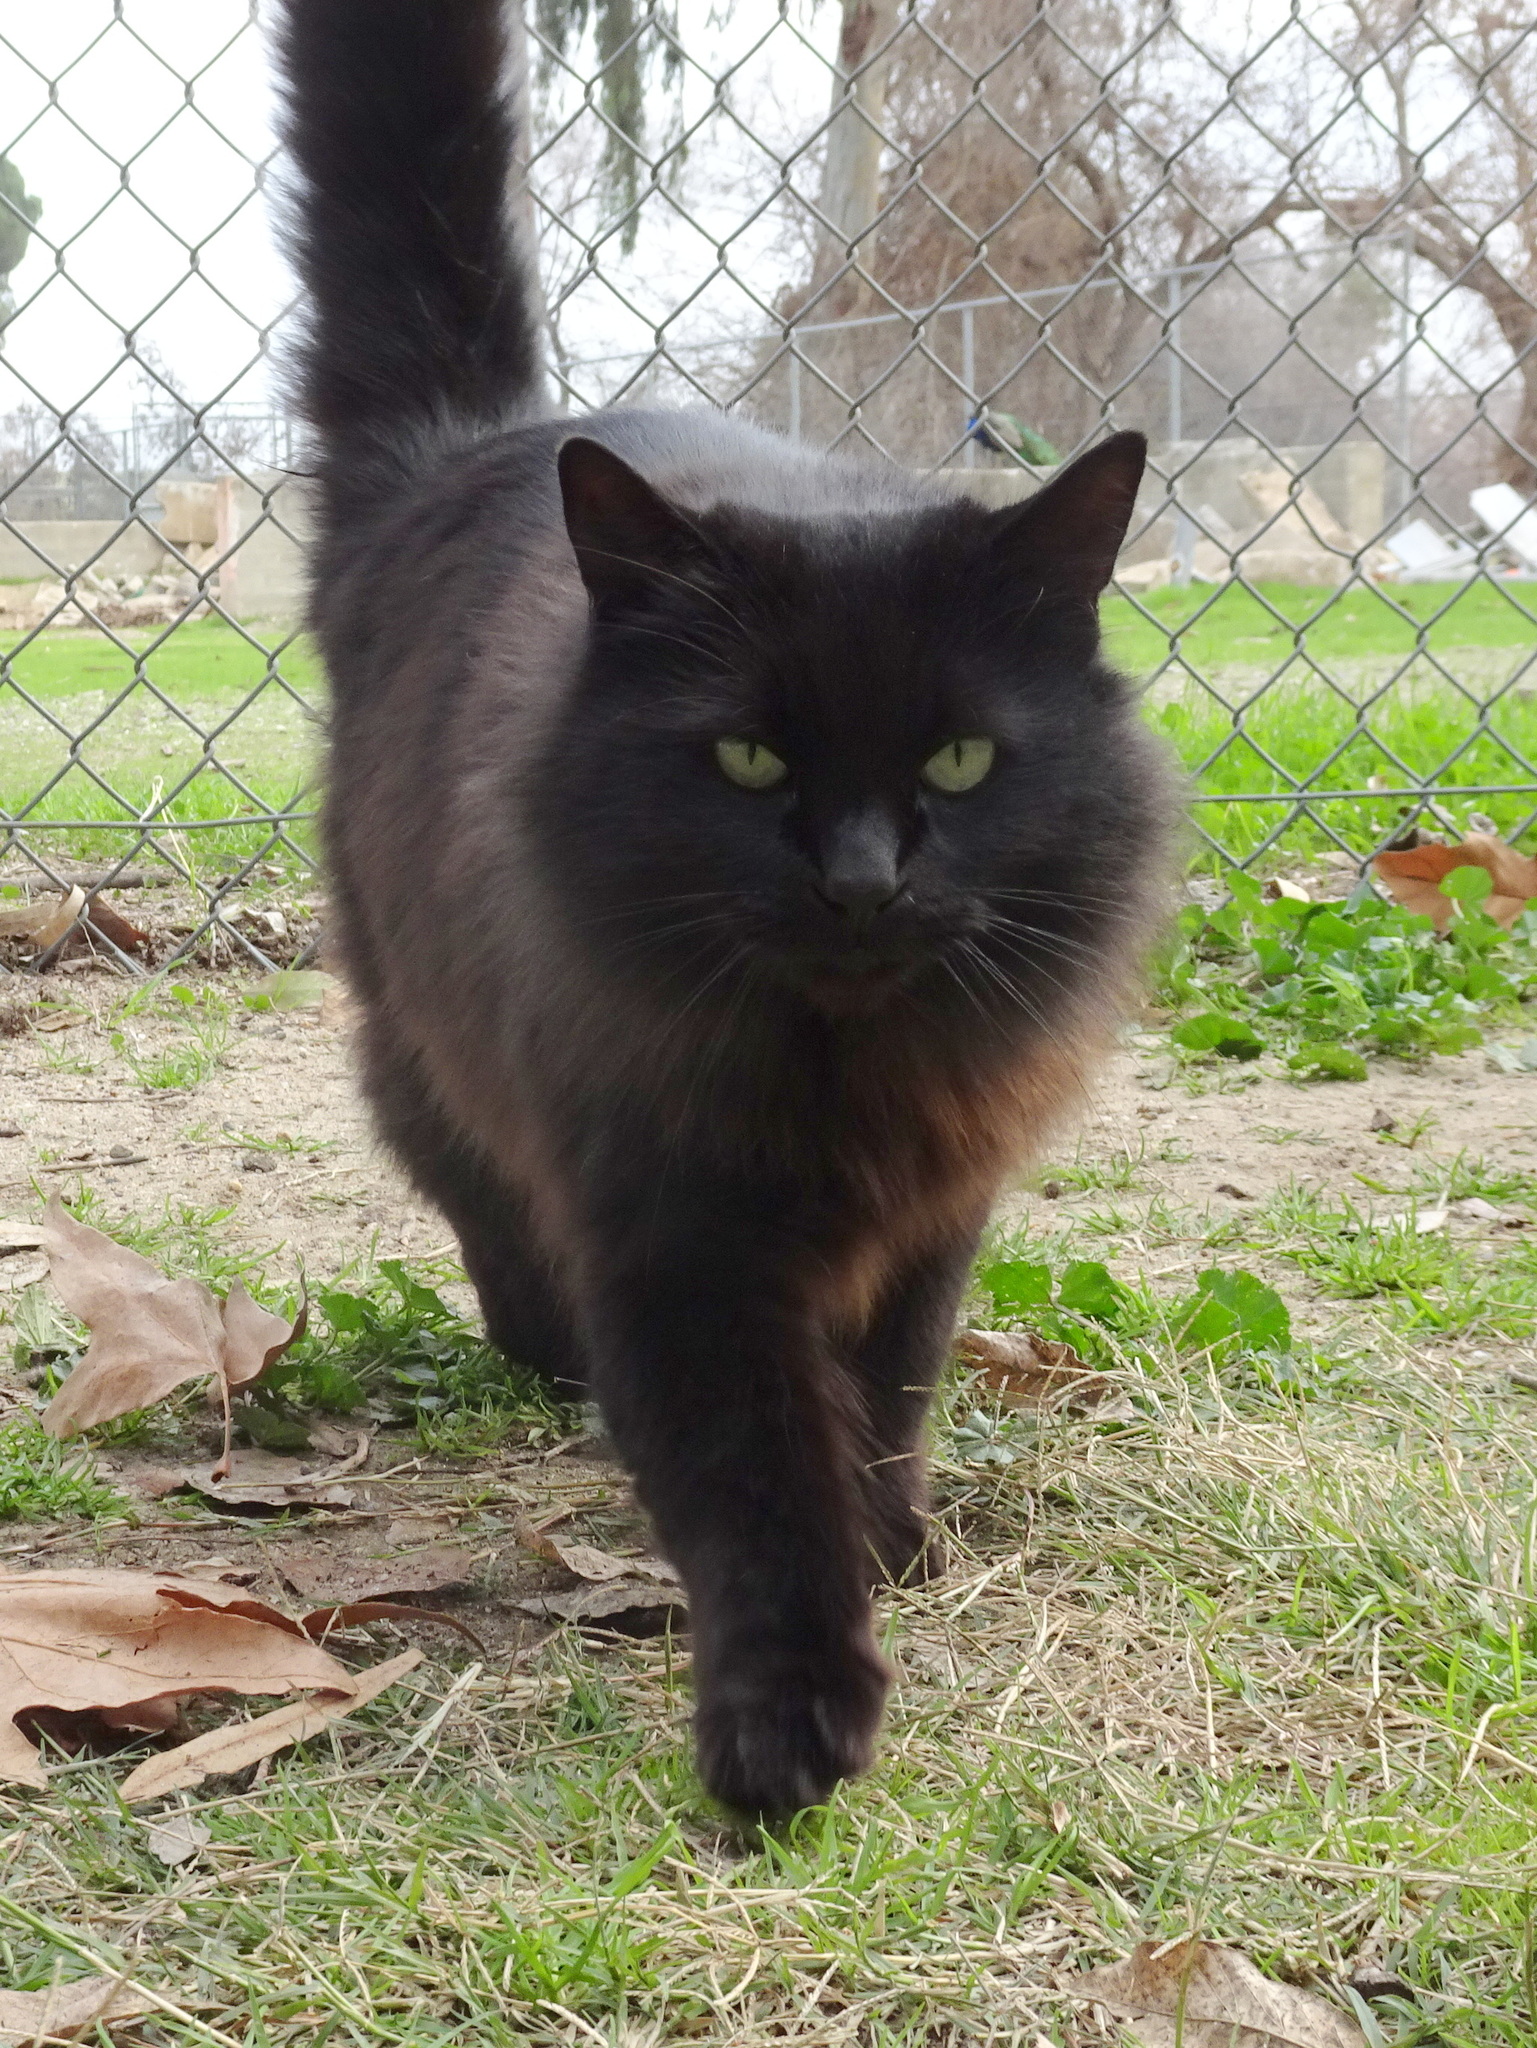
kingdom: Animalia
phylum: Chordata
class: Mammalia
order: Carnivora
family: Felidae
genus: Felis
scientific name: Felis catus
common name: Domestic cat
